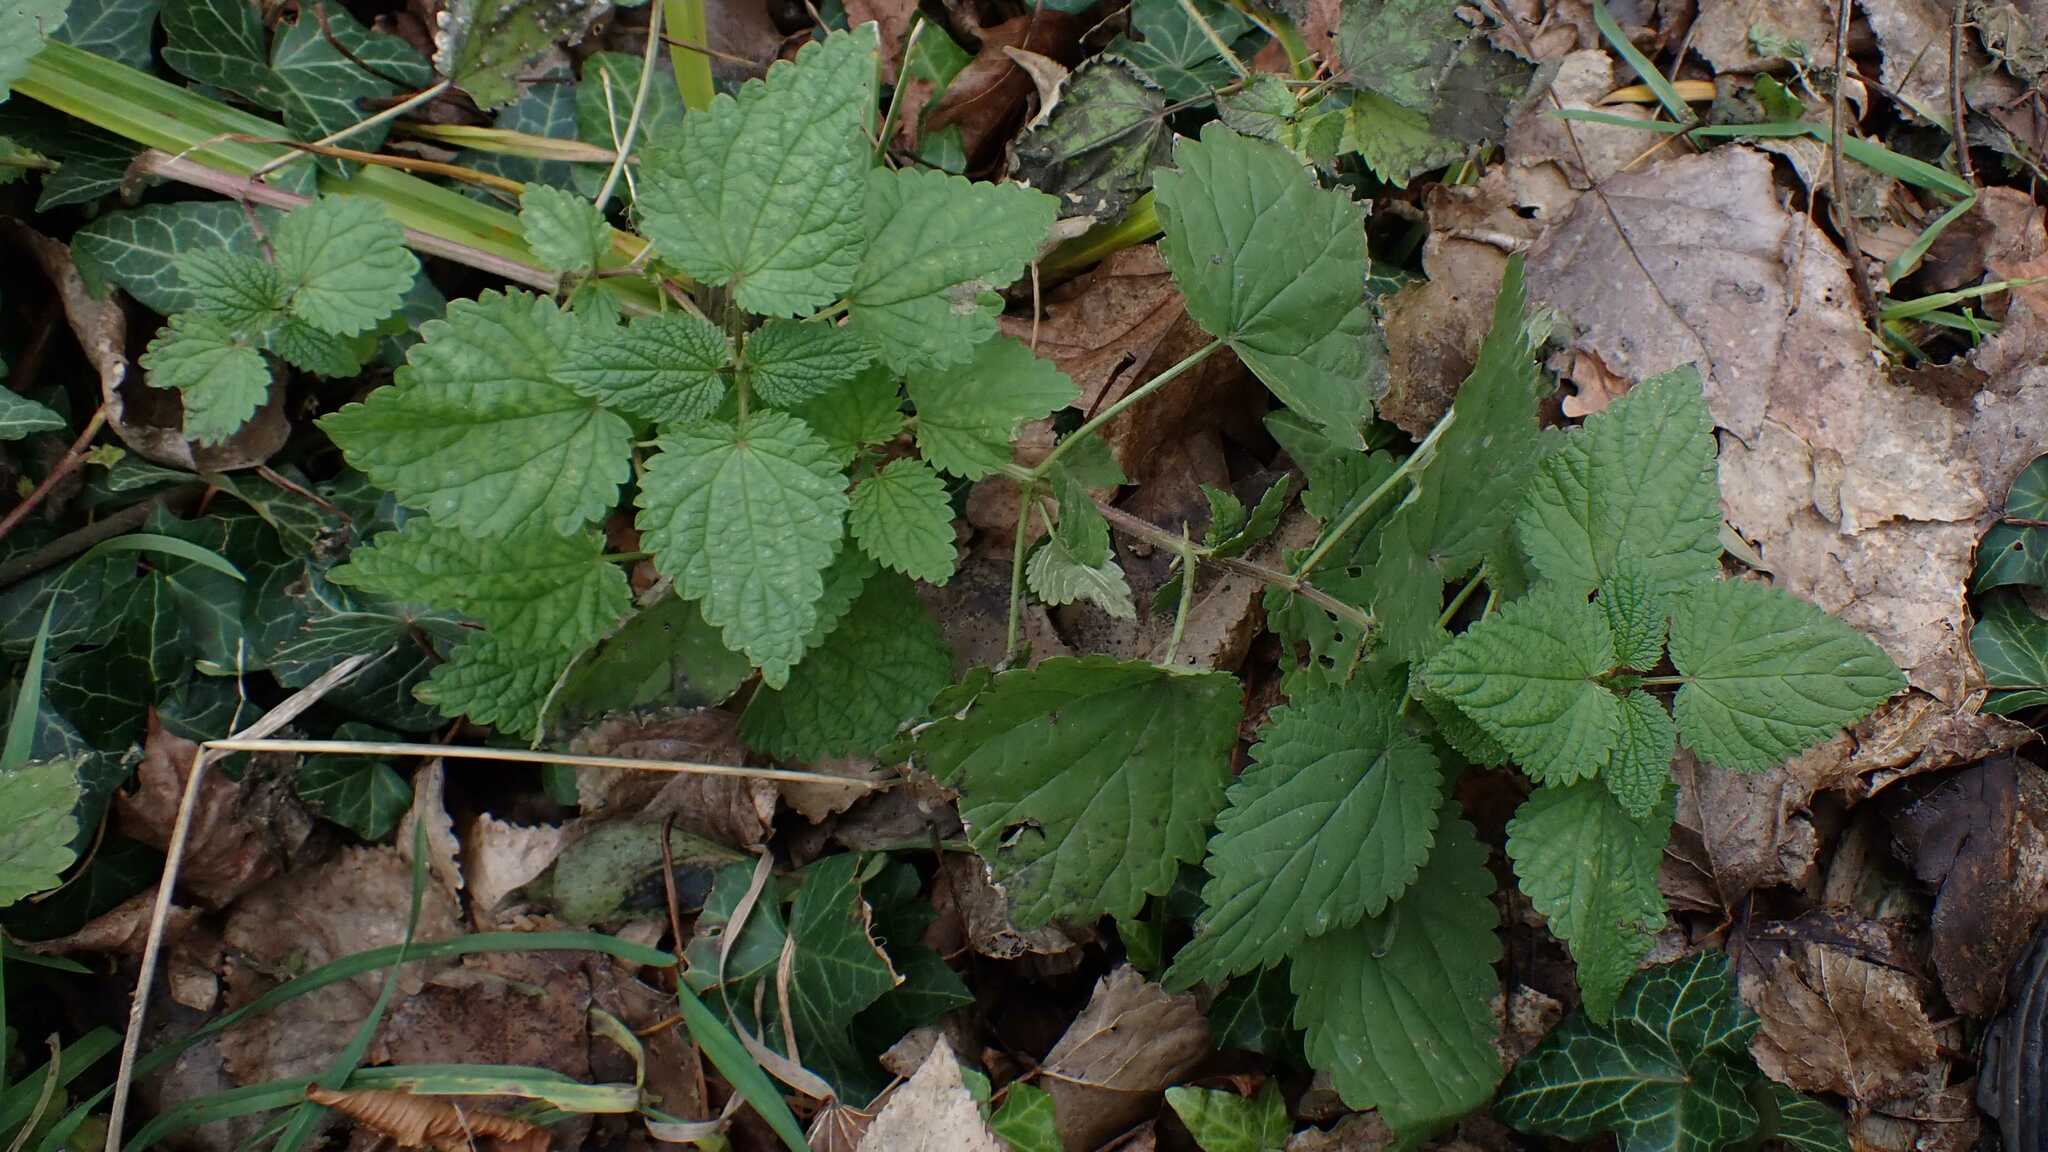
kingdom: Plantae
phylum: Tracheophyta
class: Magnoliopsida
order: Rosales
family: Urticaceae
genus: Urtica
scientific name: Urtica dioica
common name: Common nettle
